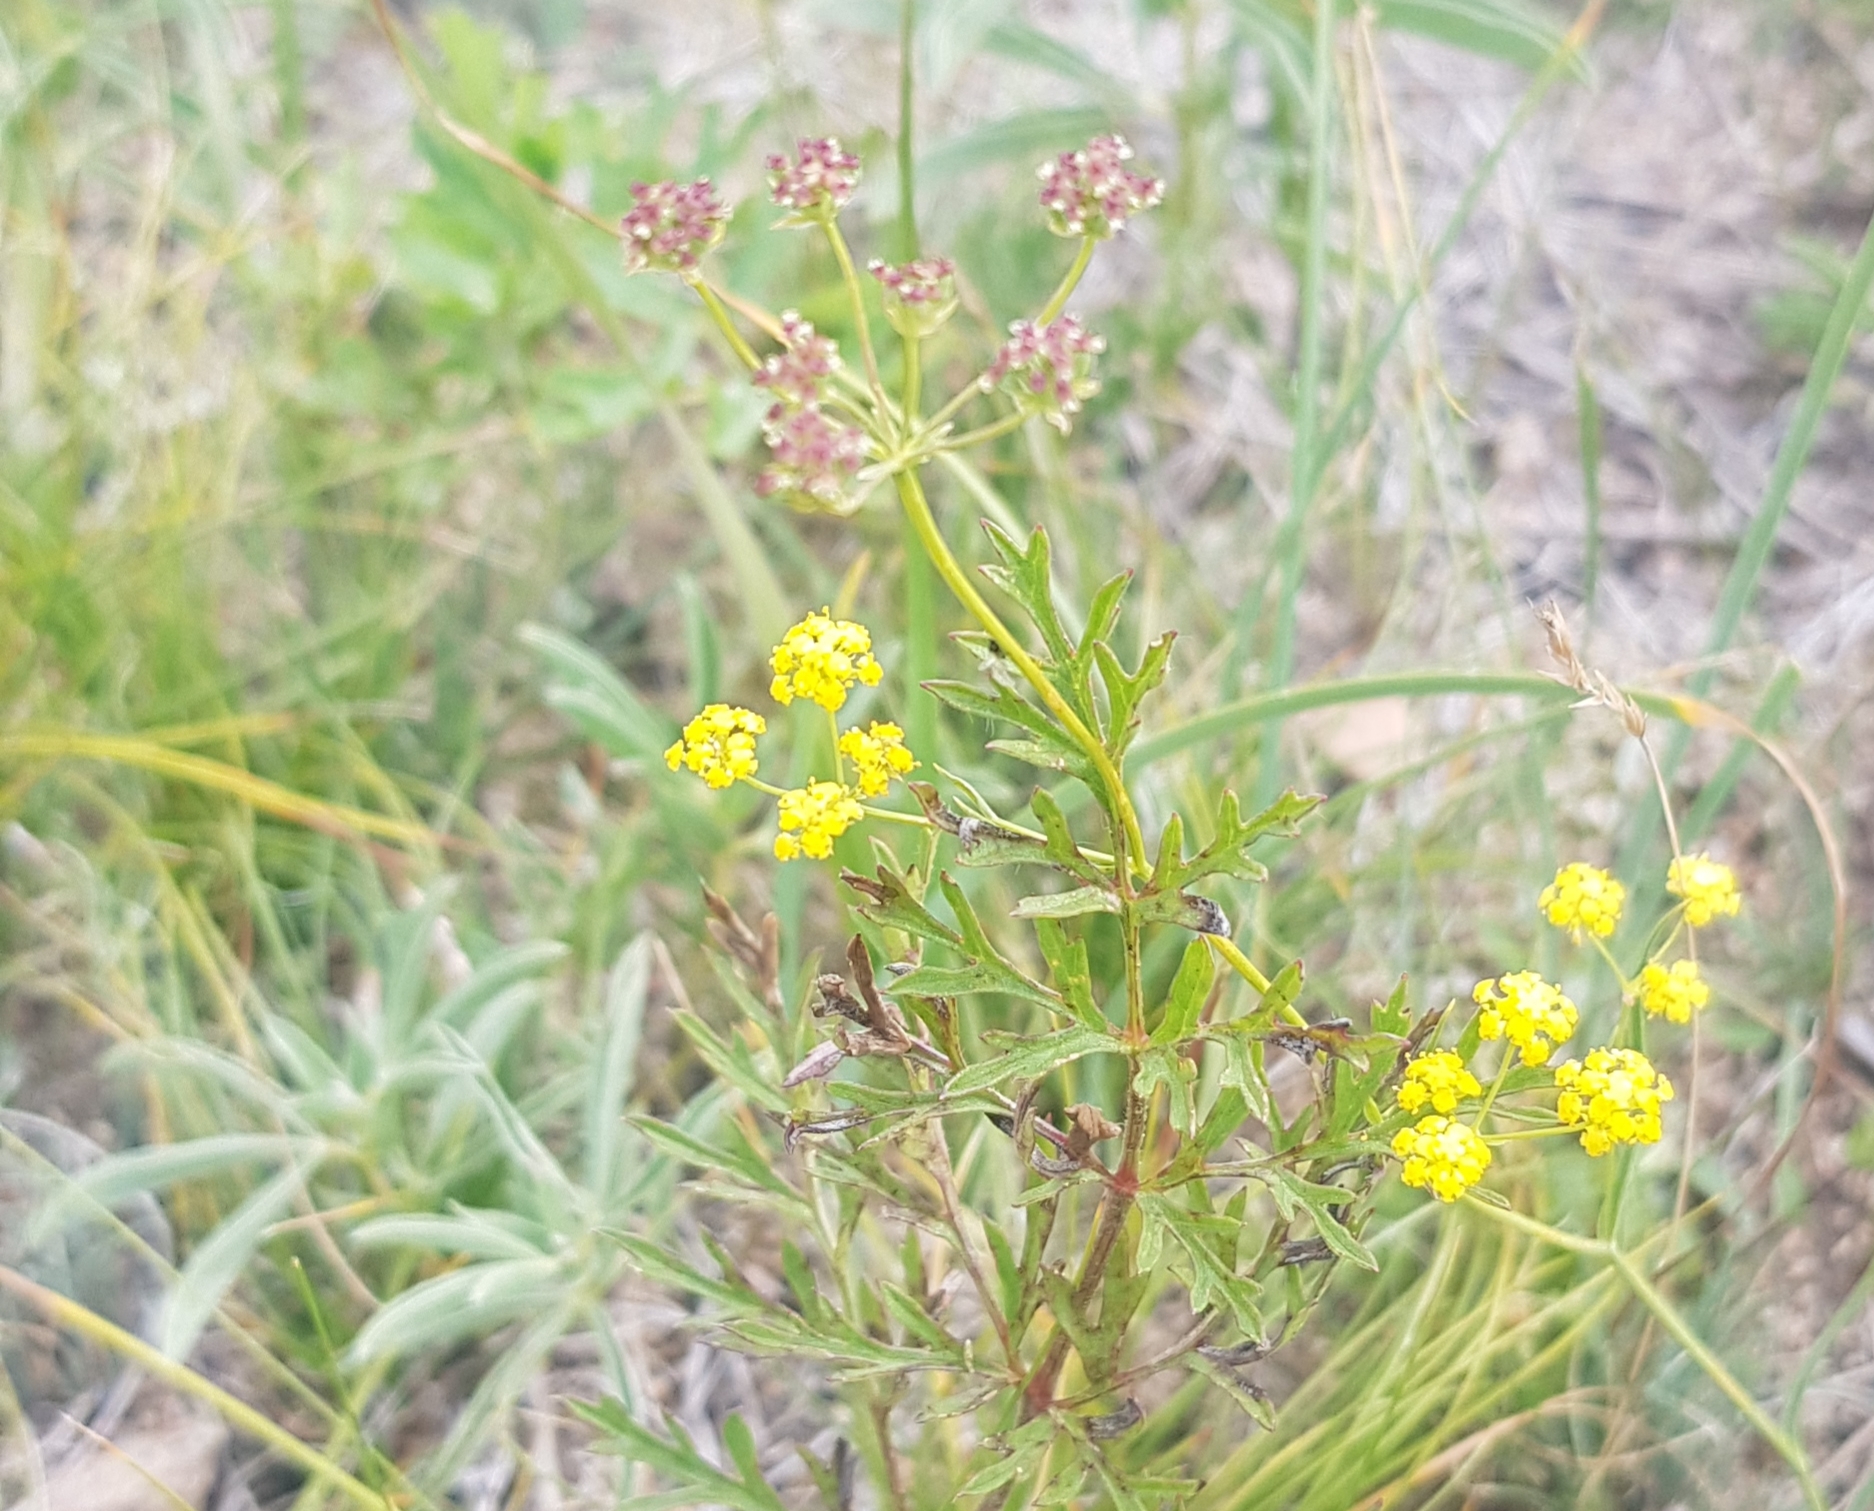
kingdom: Plantae
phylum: Tracheophyta
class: Magnoliopsida
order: Apiales
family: Apiaceae
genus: Bupleurum
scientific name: Bupleurum bicaule
